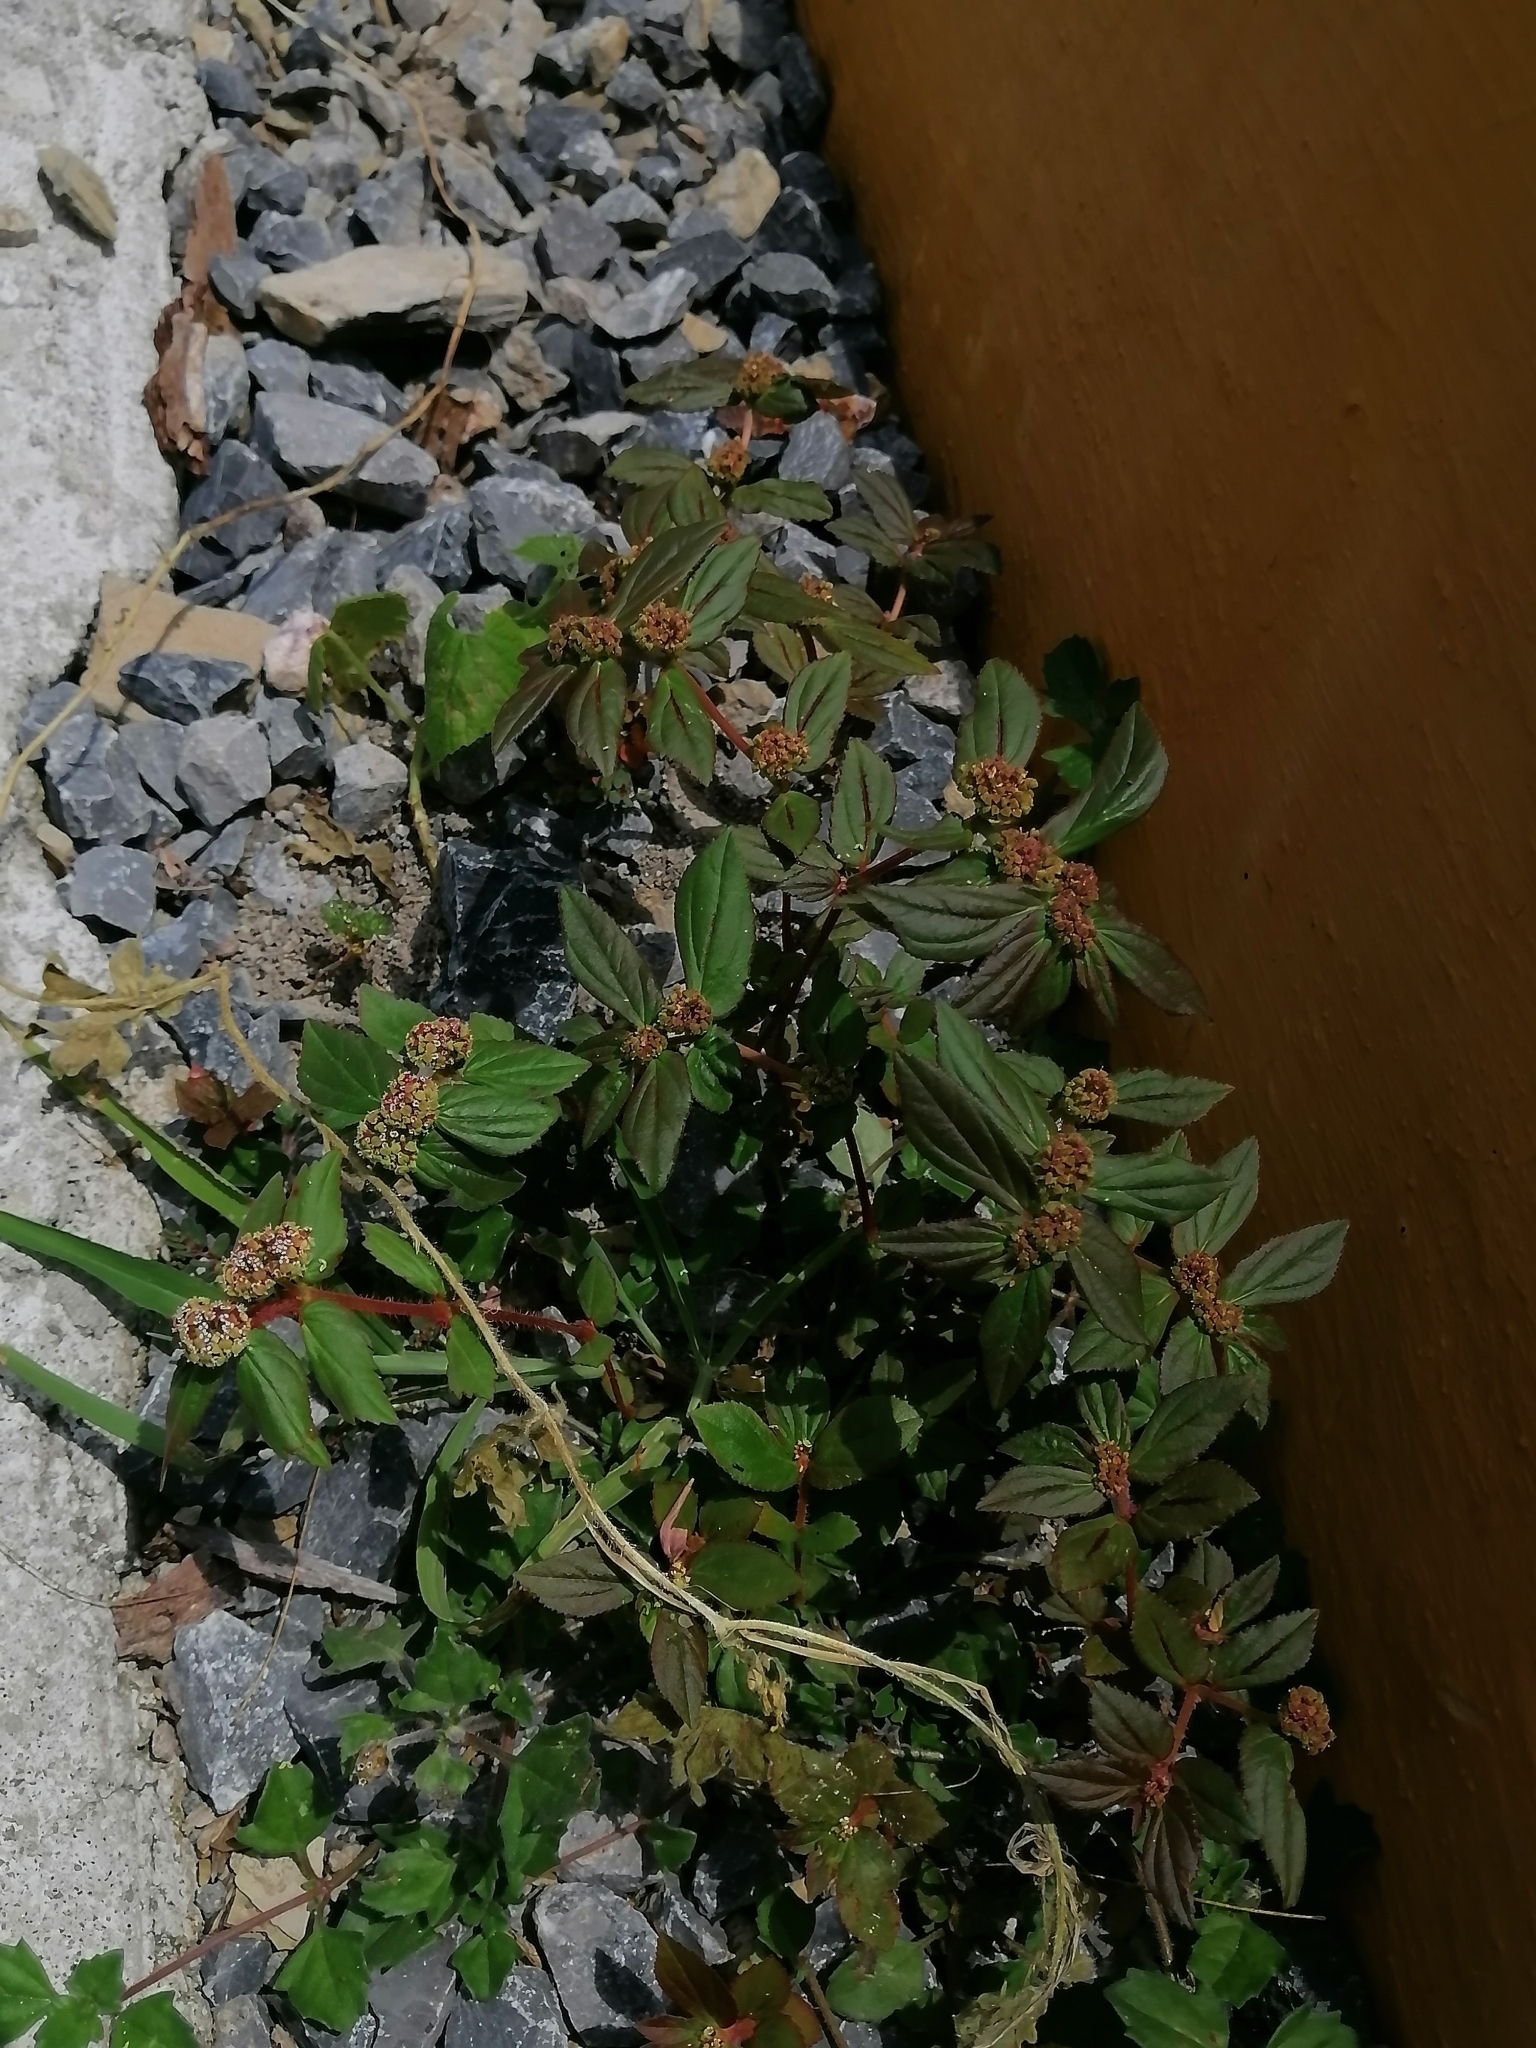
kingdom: Plantae
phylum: Tracheophyta
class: Magnoliopsida
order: Malpighiales
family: Euphorbiaceae
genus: Euphorbia
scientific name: Euphorbia hirta
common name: Pillpod sandmat
